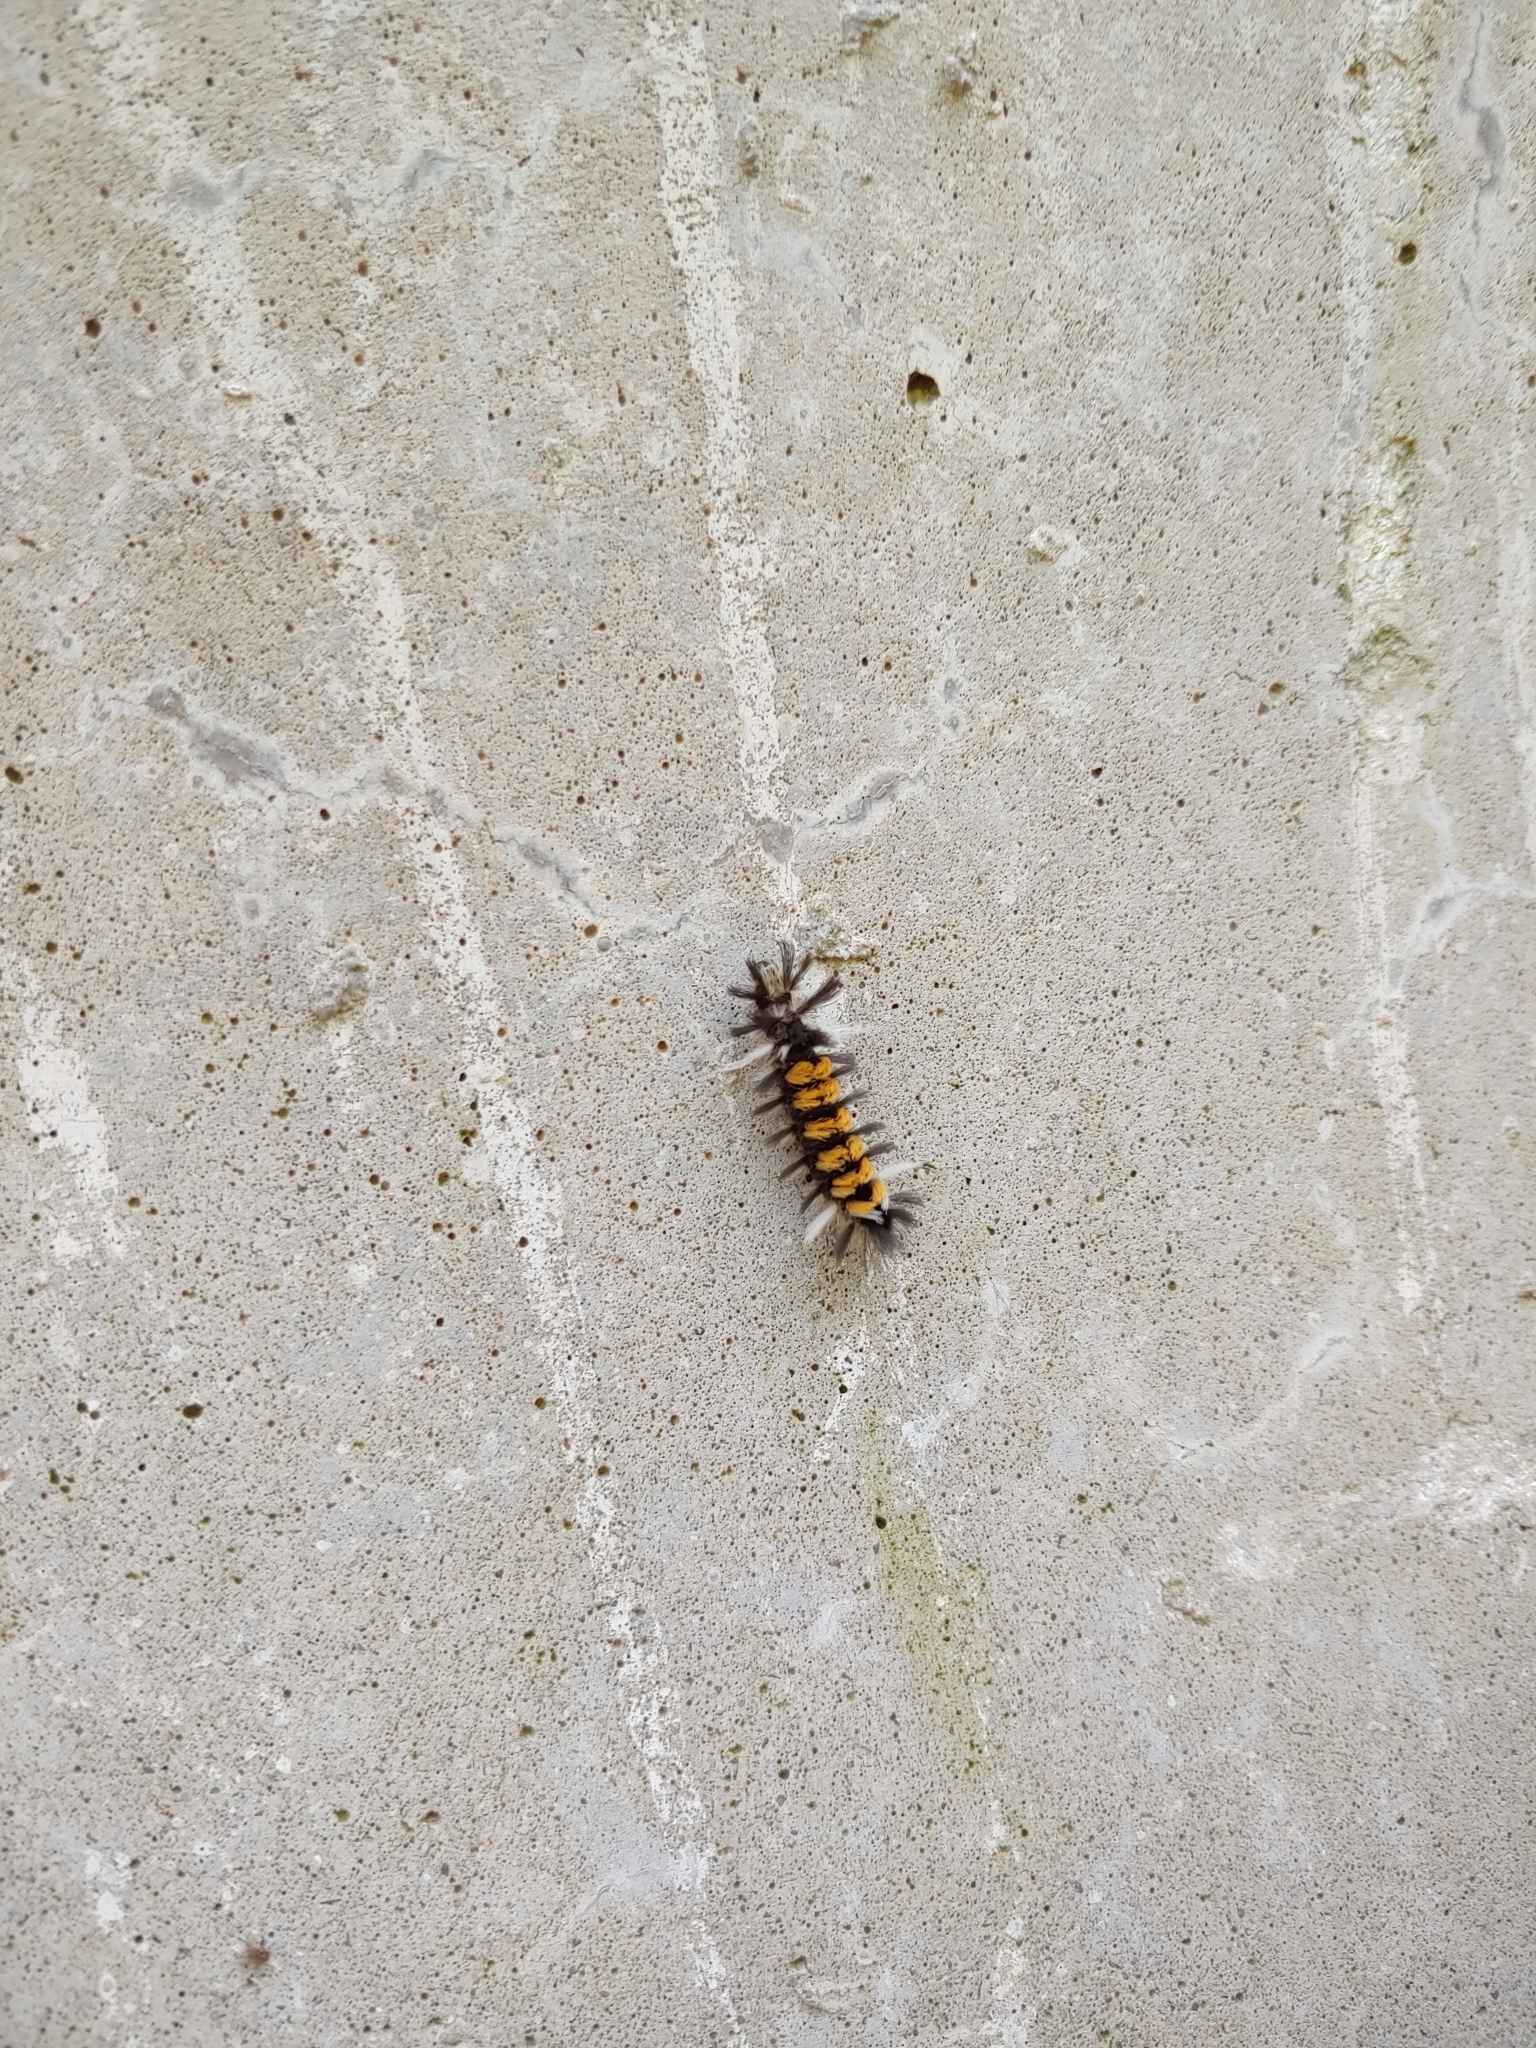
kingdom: Animalia
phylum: Arthropoda
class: Insecta
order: Lepidoptera
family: Erebidae
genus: Euchaetes
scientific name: Euchaetes egle
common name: Milkweed tussock moth
